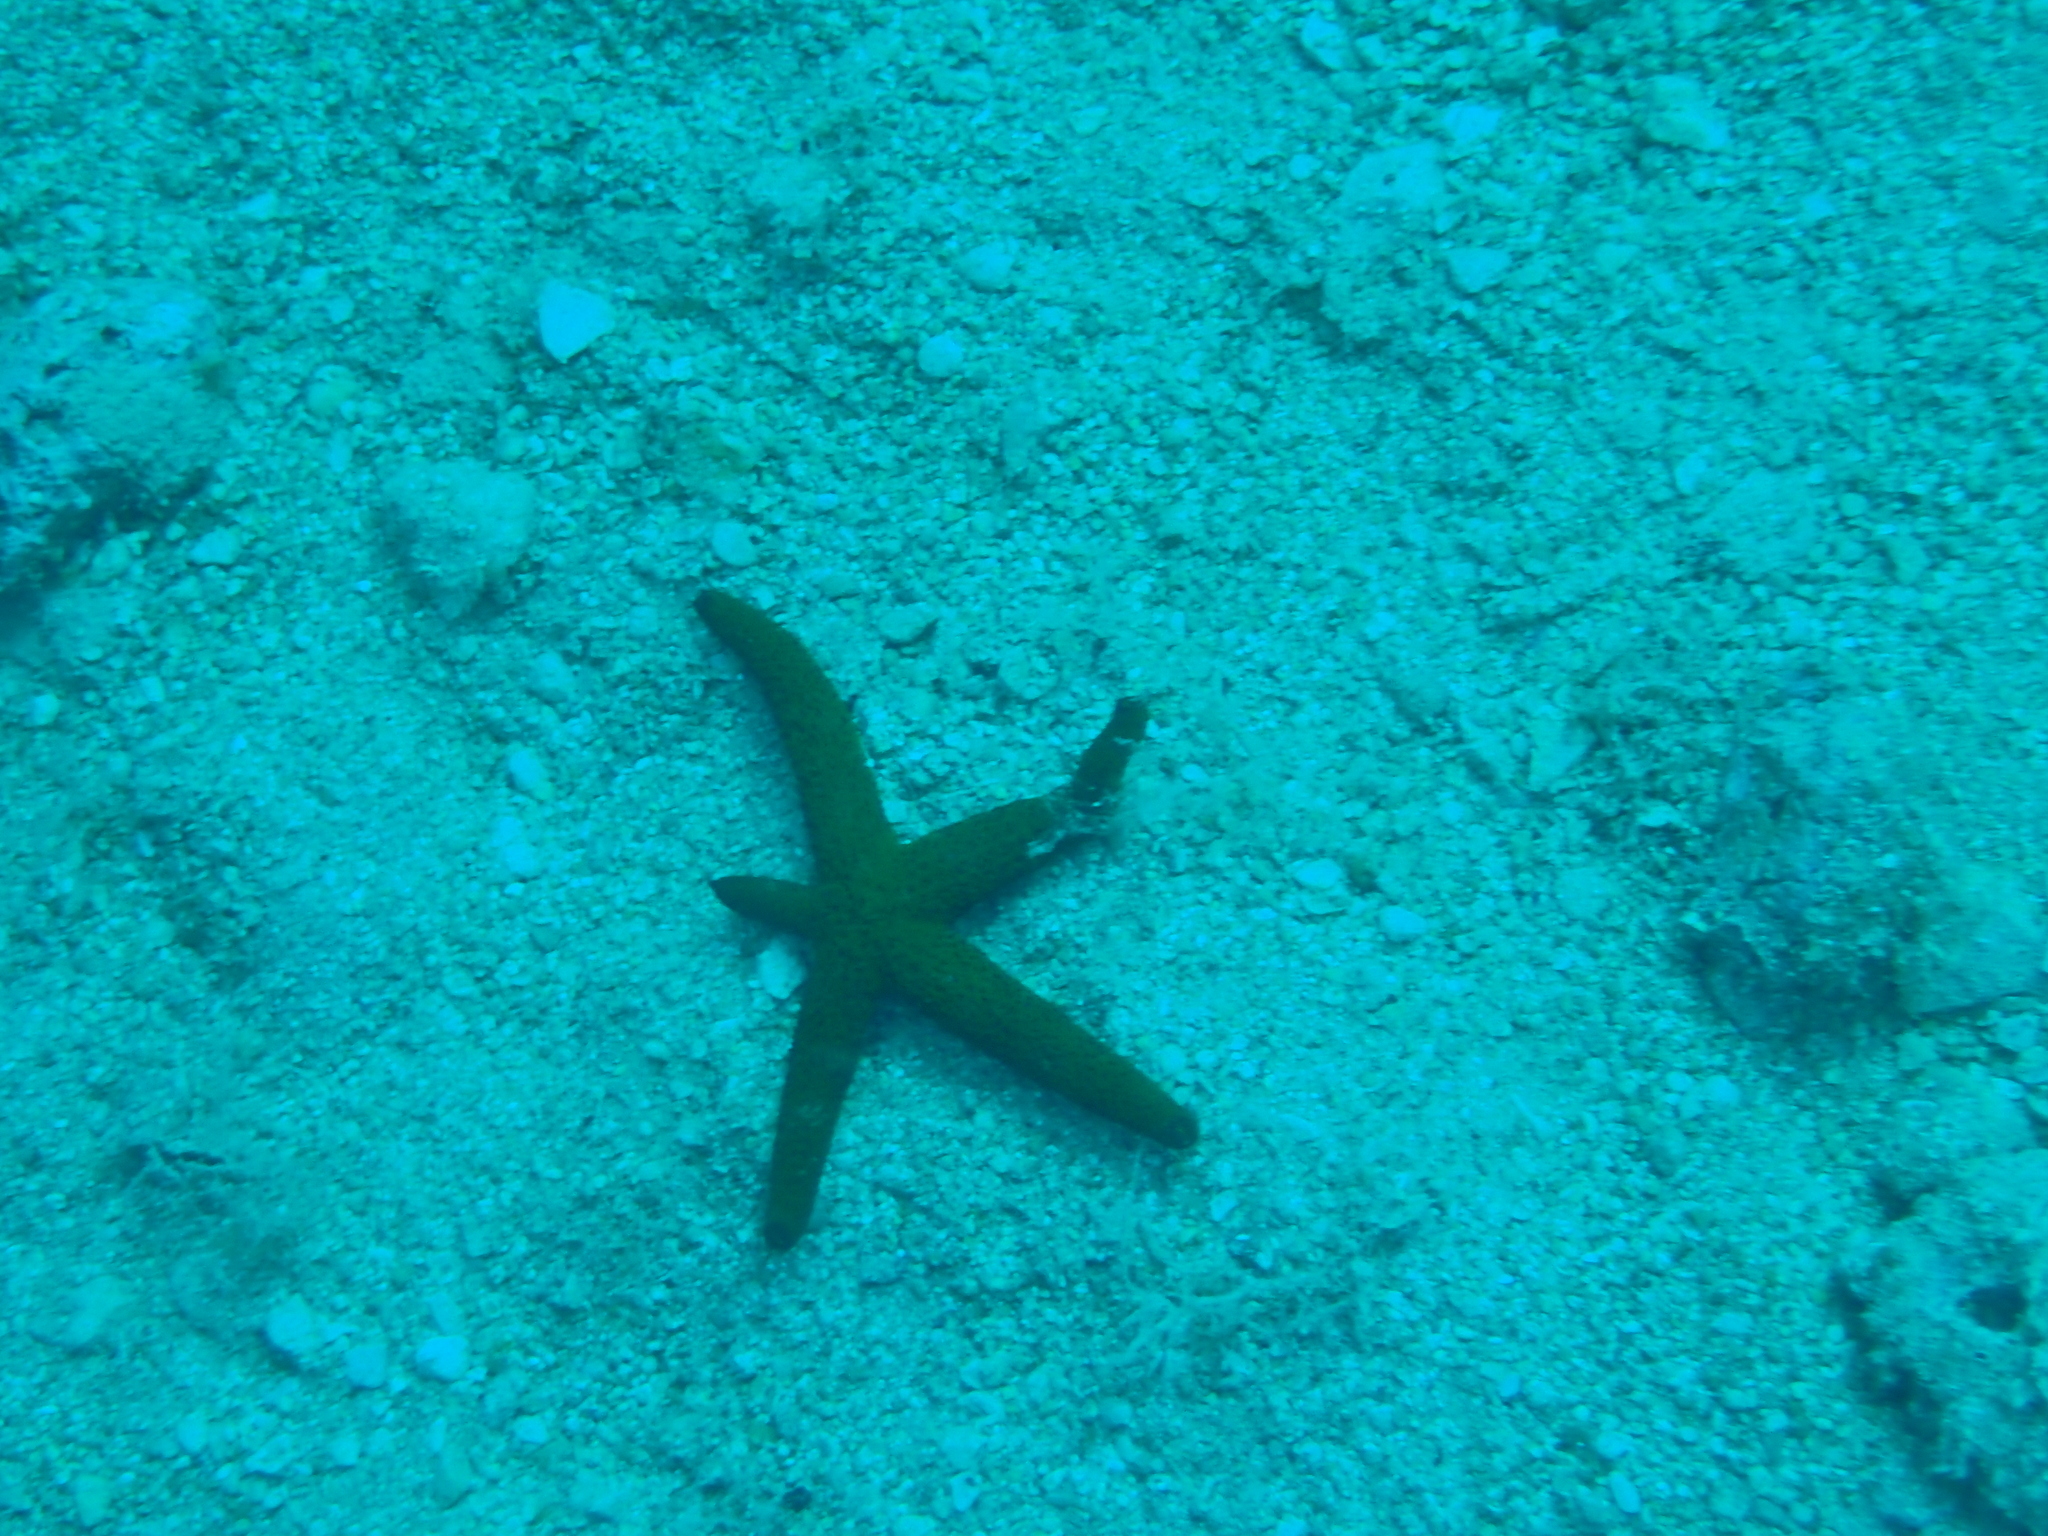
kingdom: Animalia
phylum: Echinodermata
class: Asteroidea
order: Spinulosida
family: Echinasteridae
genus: Echinaster
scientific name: Echinaster sepositus
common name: Red starfish
